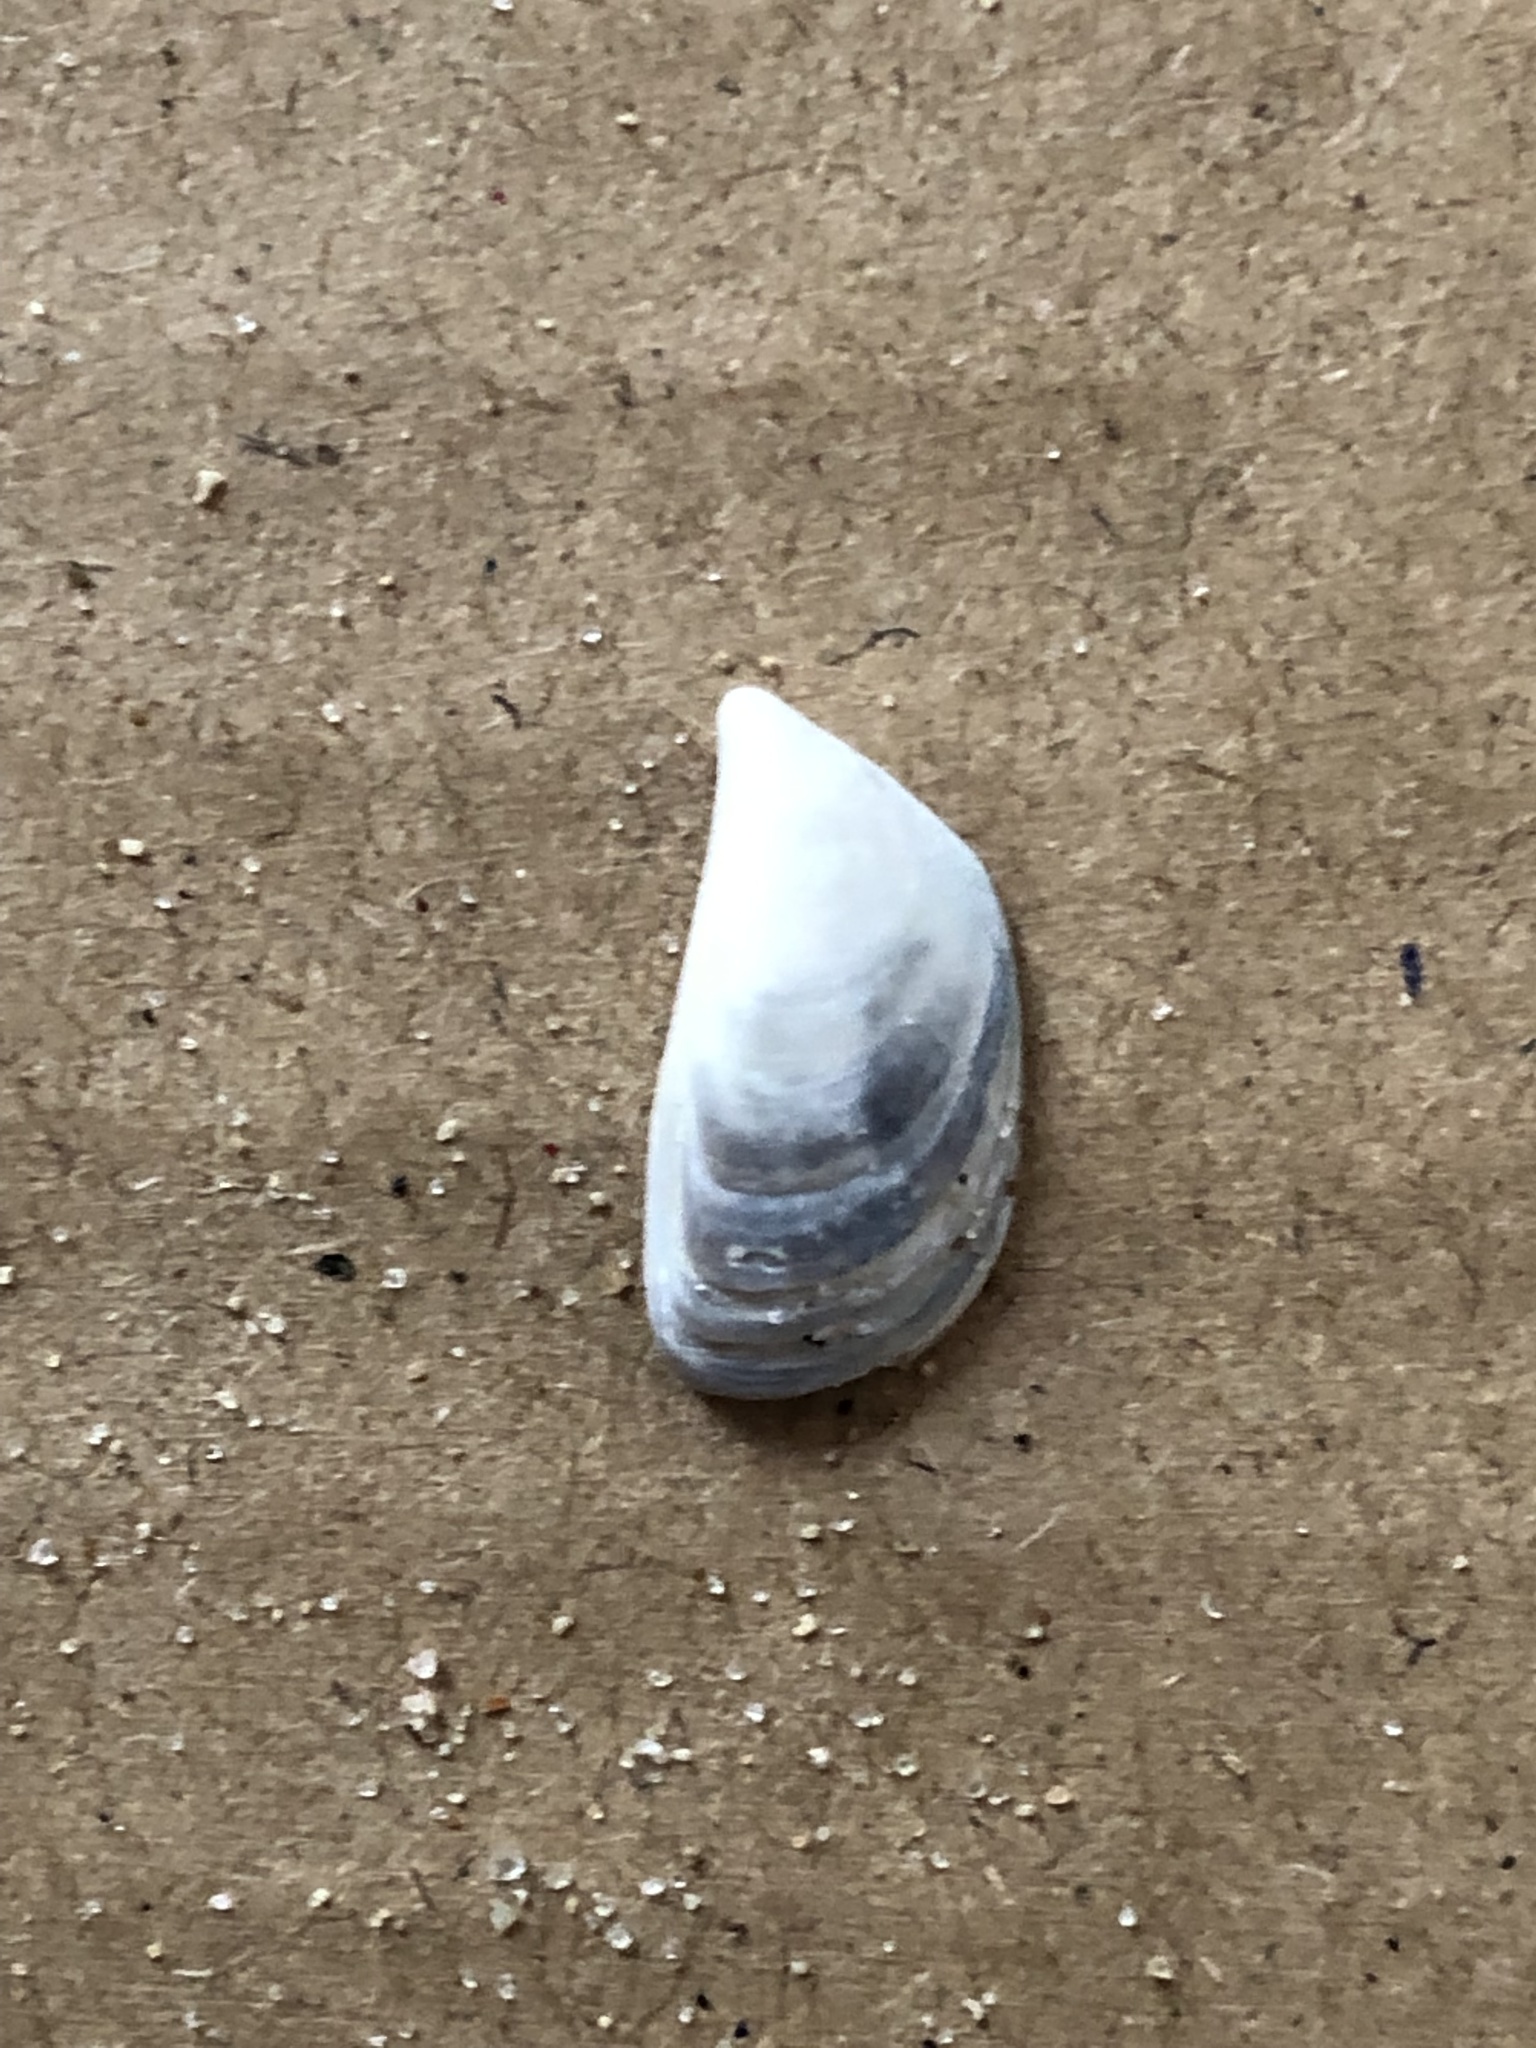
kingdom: Animalia
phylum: Mollusca
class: Bivalvia
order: Myida
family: Dreissenidae
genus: Dreissena
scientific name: Dreissena polymorpha
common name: Zebra mussel
